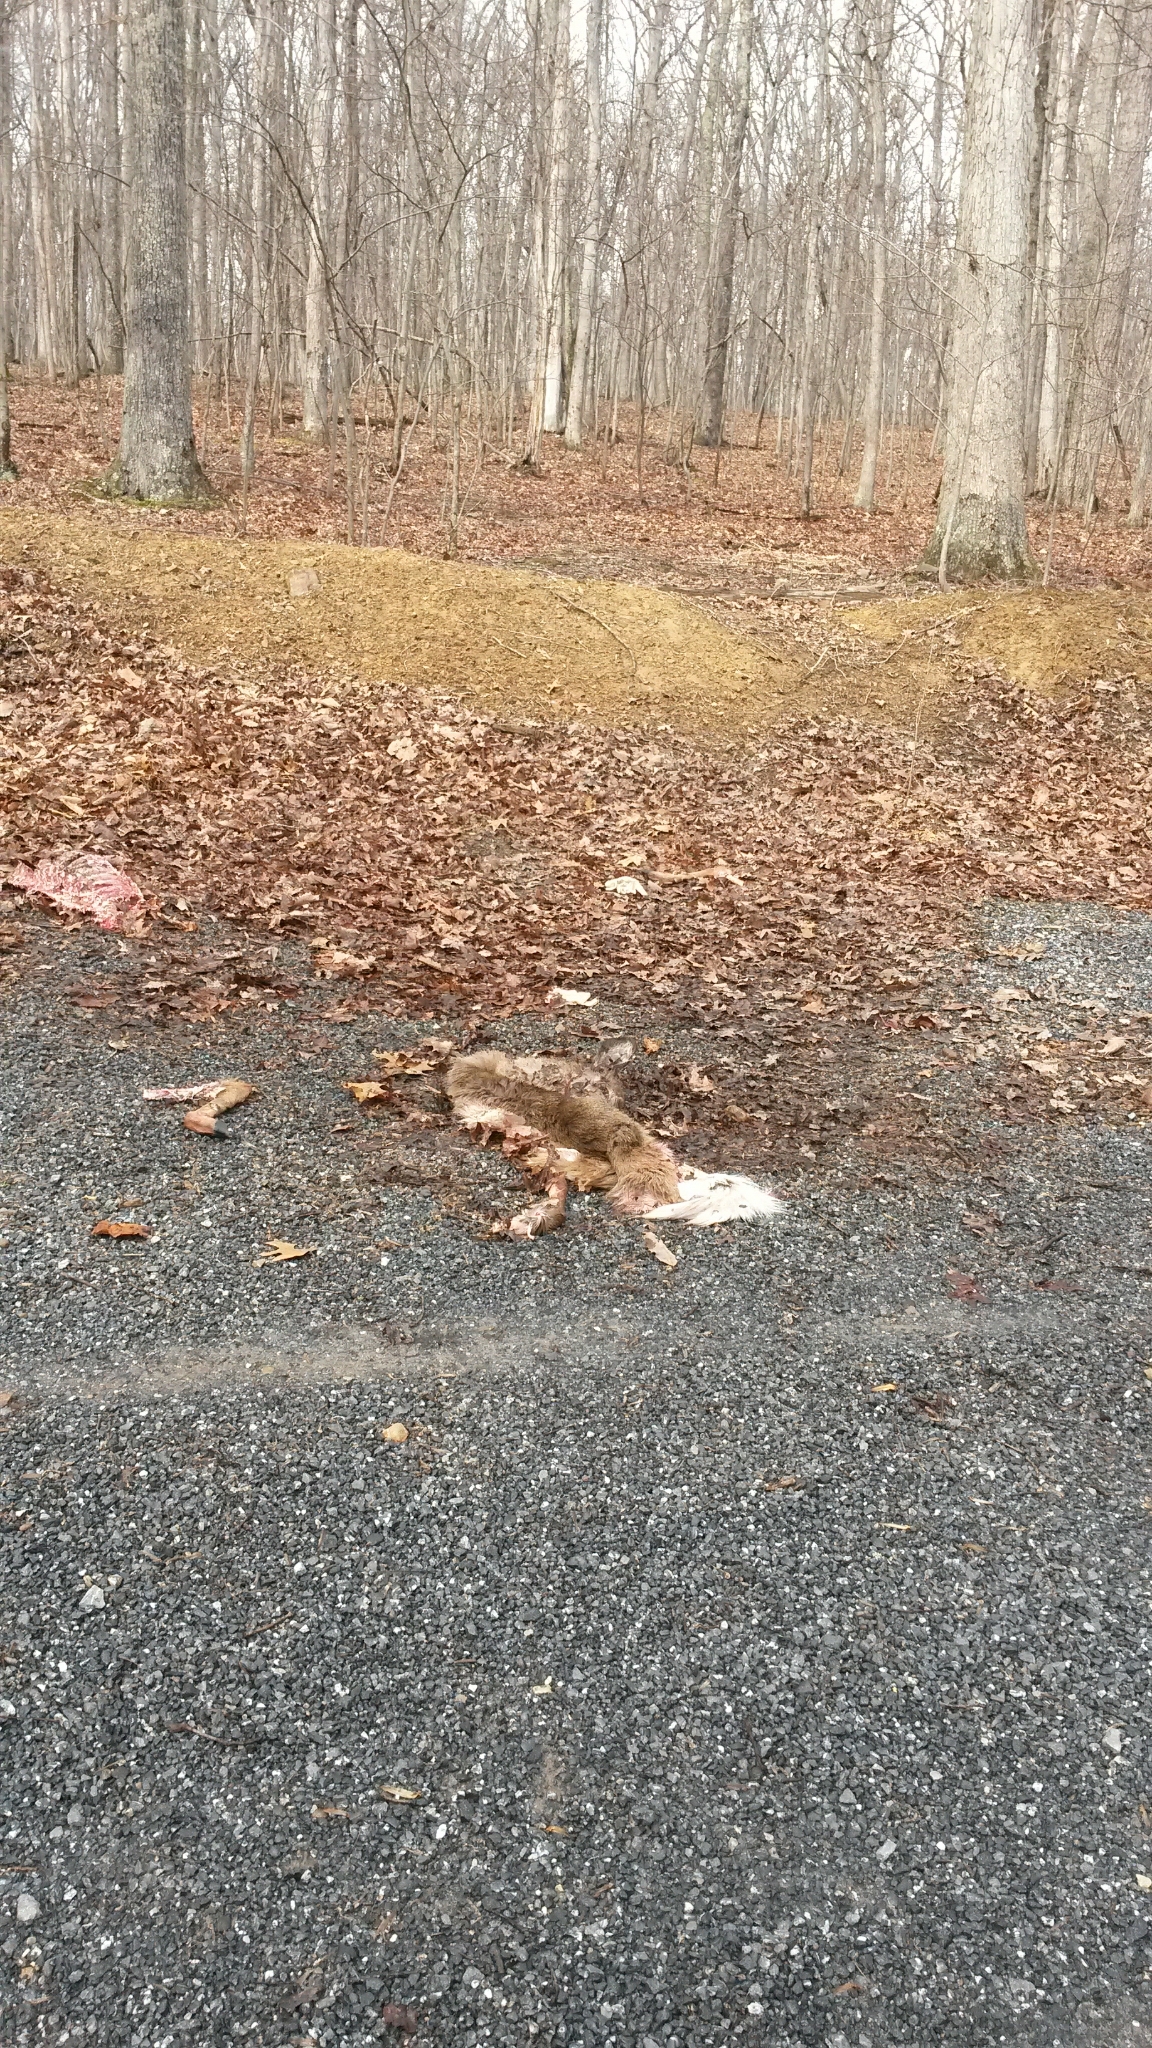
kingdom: Animalia
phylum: Chordata
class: Mammalia
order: Artiodactyla
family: Cervidae
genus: Odocoileus
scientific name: Odocoileus virginianus
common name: White-tailed deer
